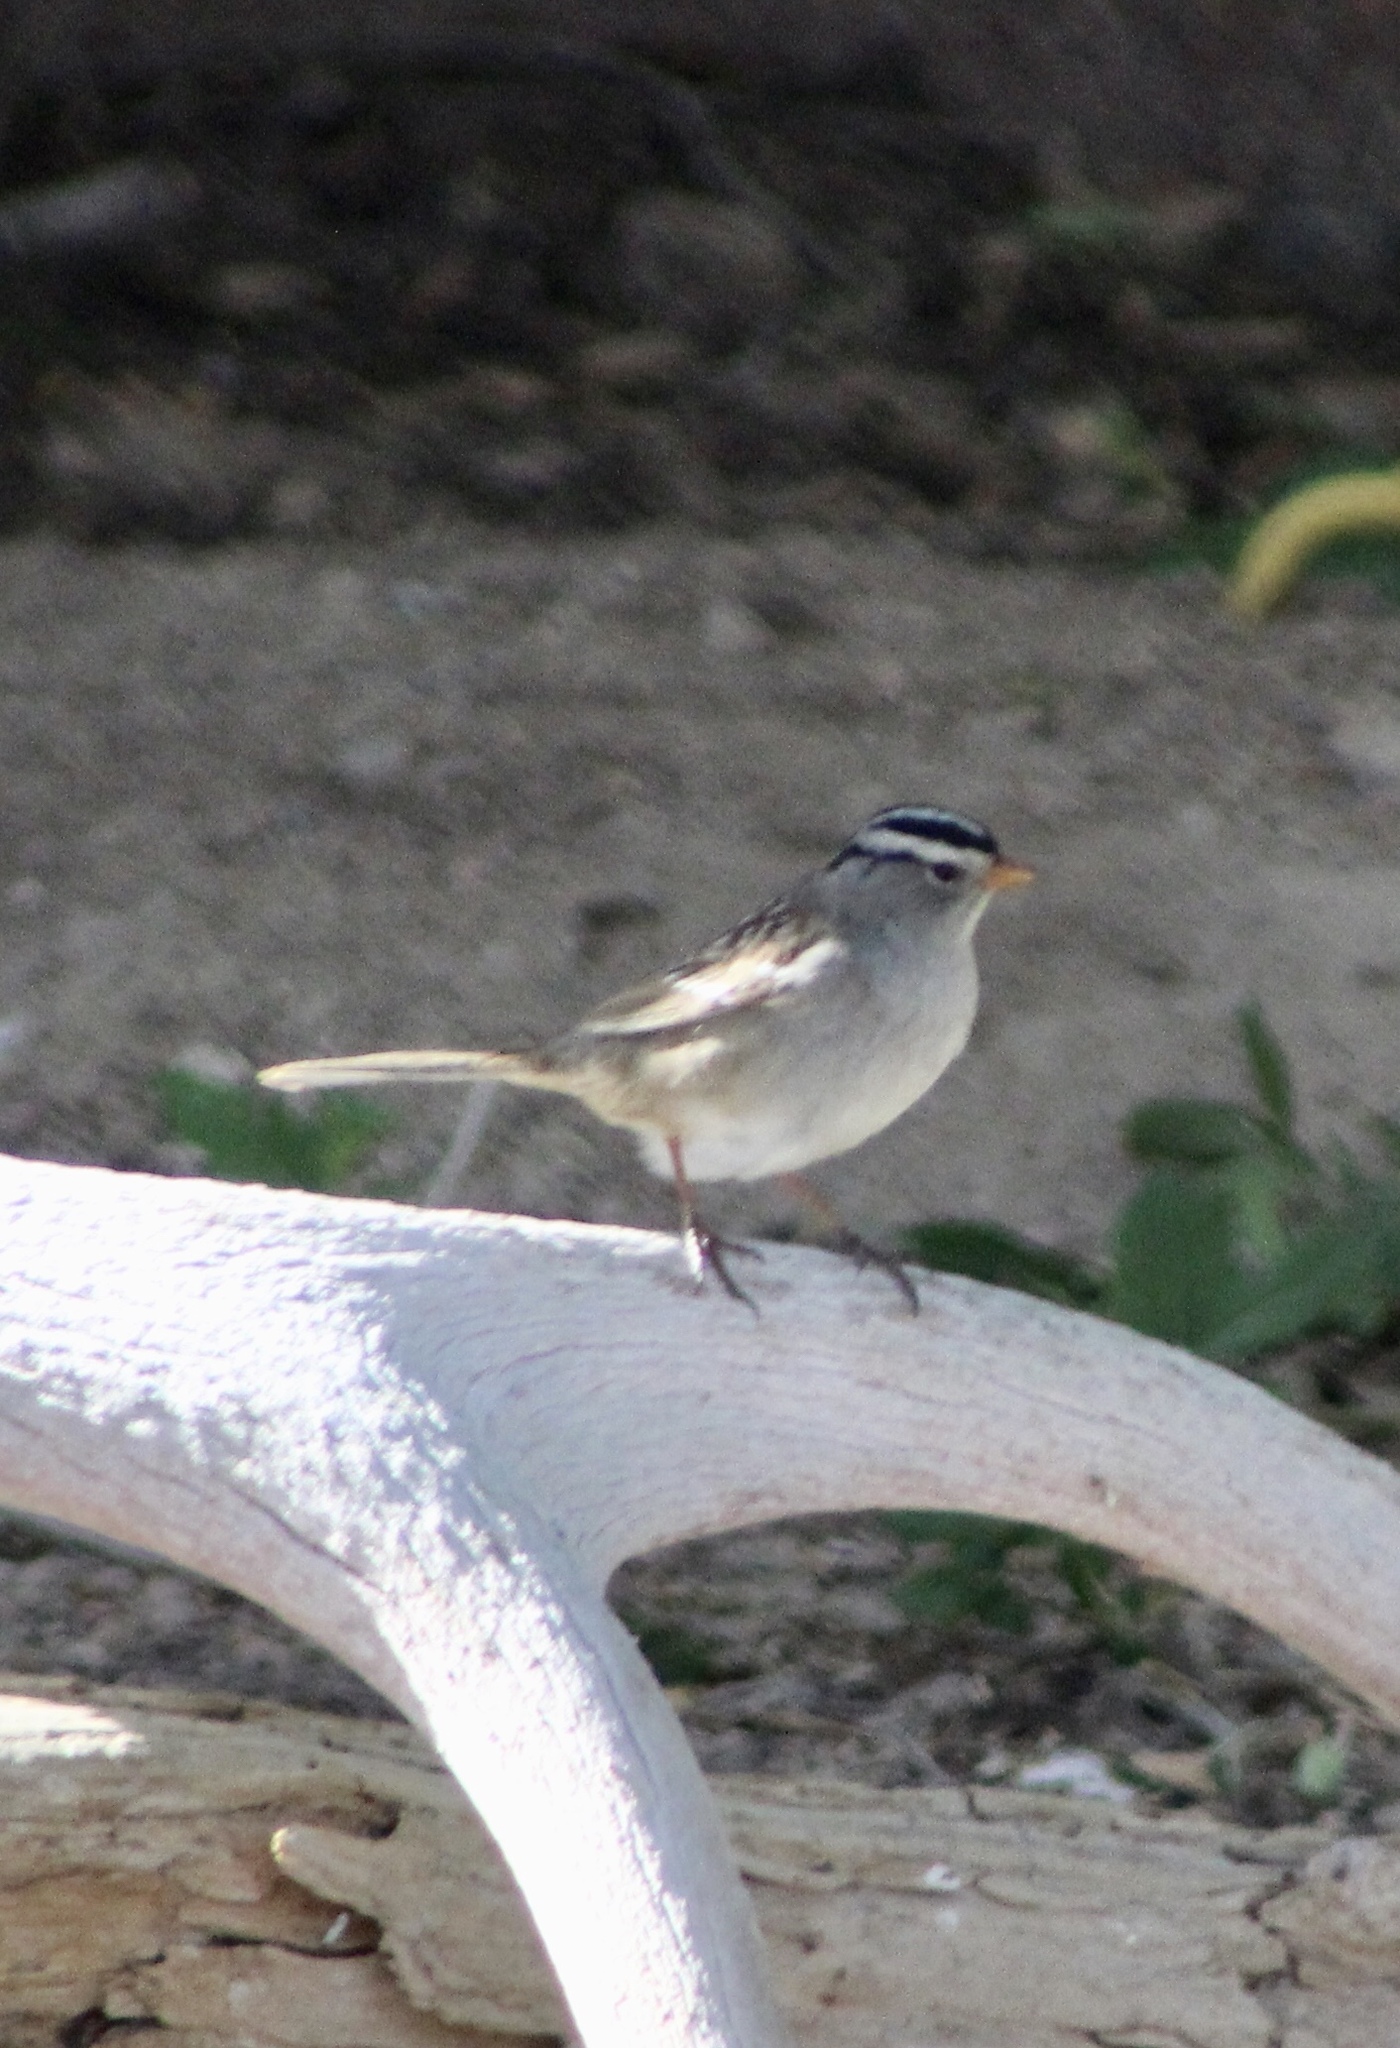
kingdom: Animalia
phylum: Chordata
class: Aves
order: Passeriformes
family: Passerellidae
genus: Zonotrichia
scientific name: Zonotrichia leucophrys
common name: White-crowned sparrow
